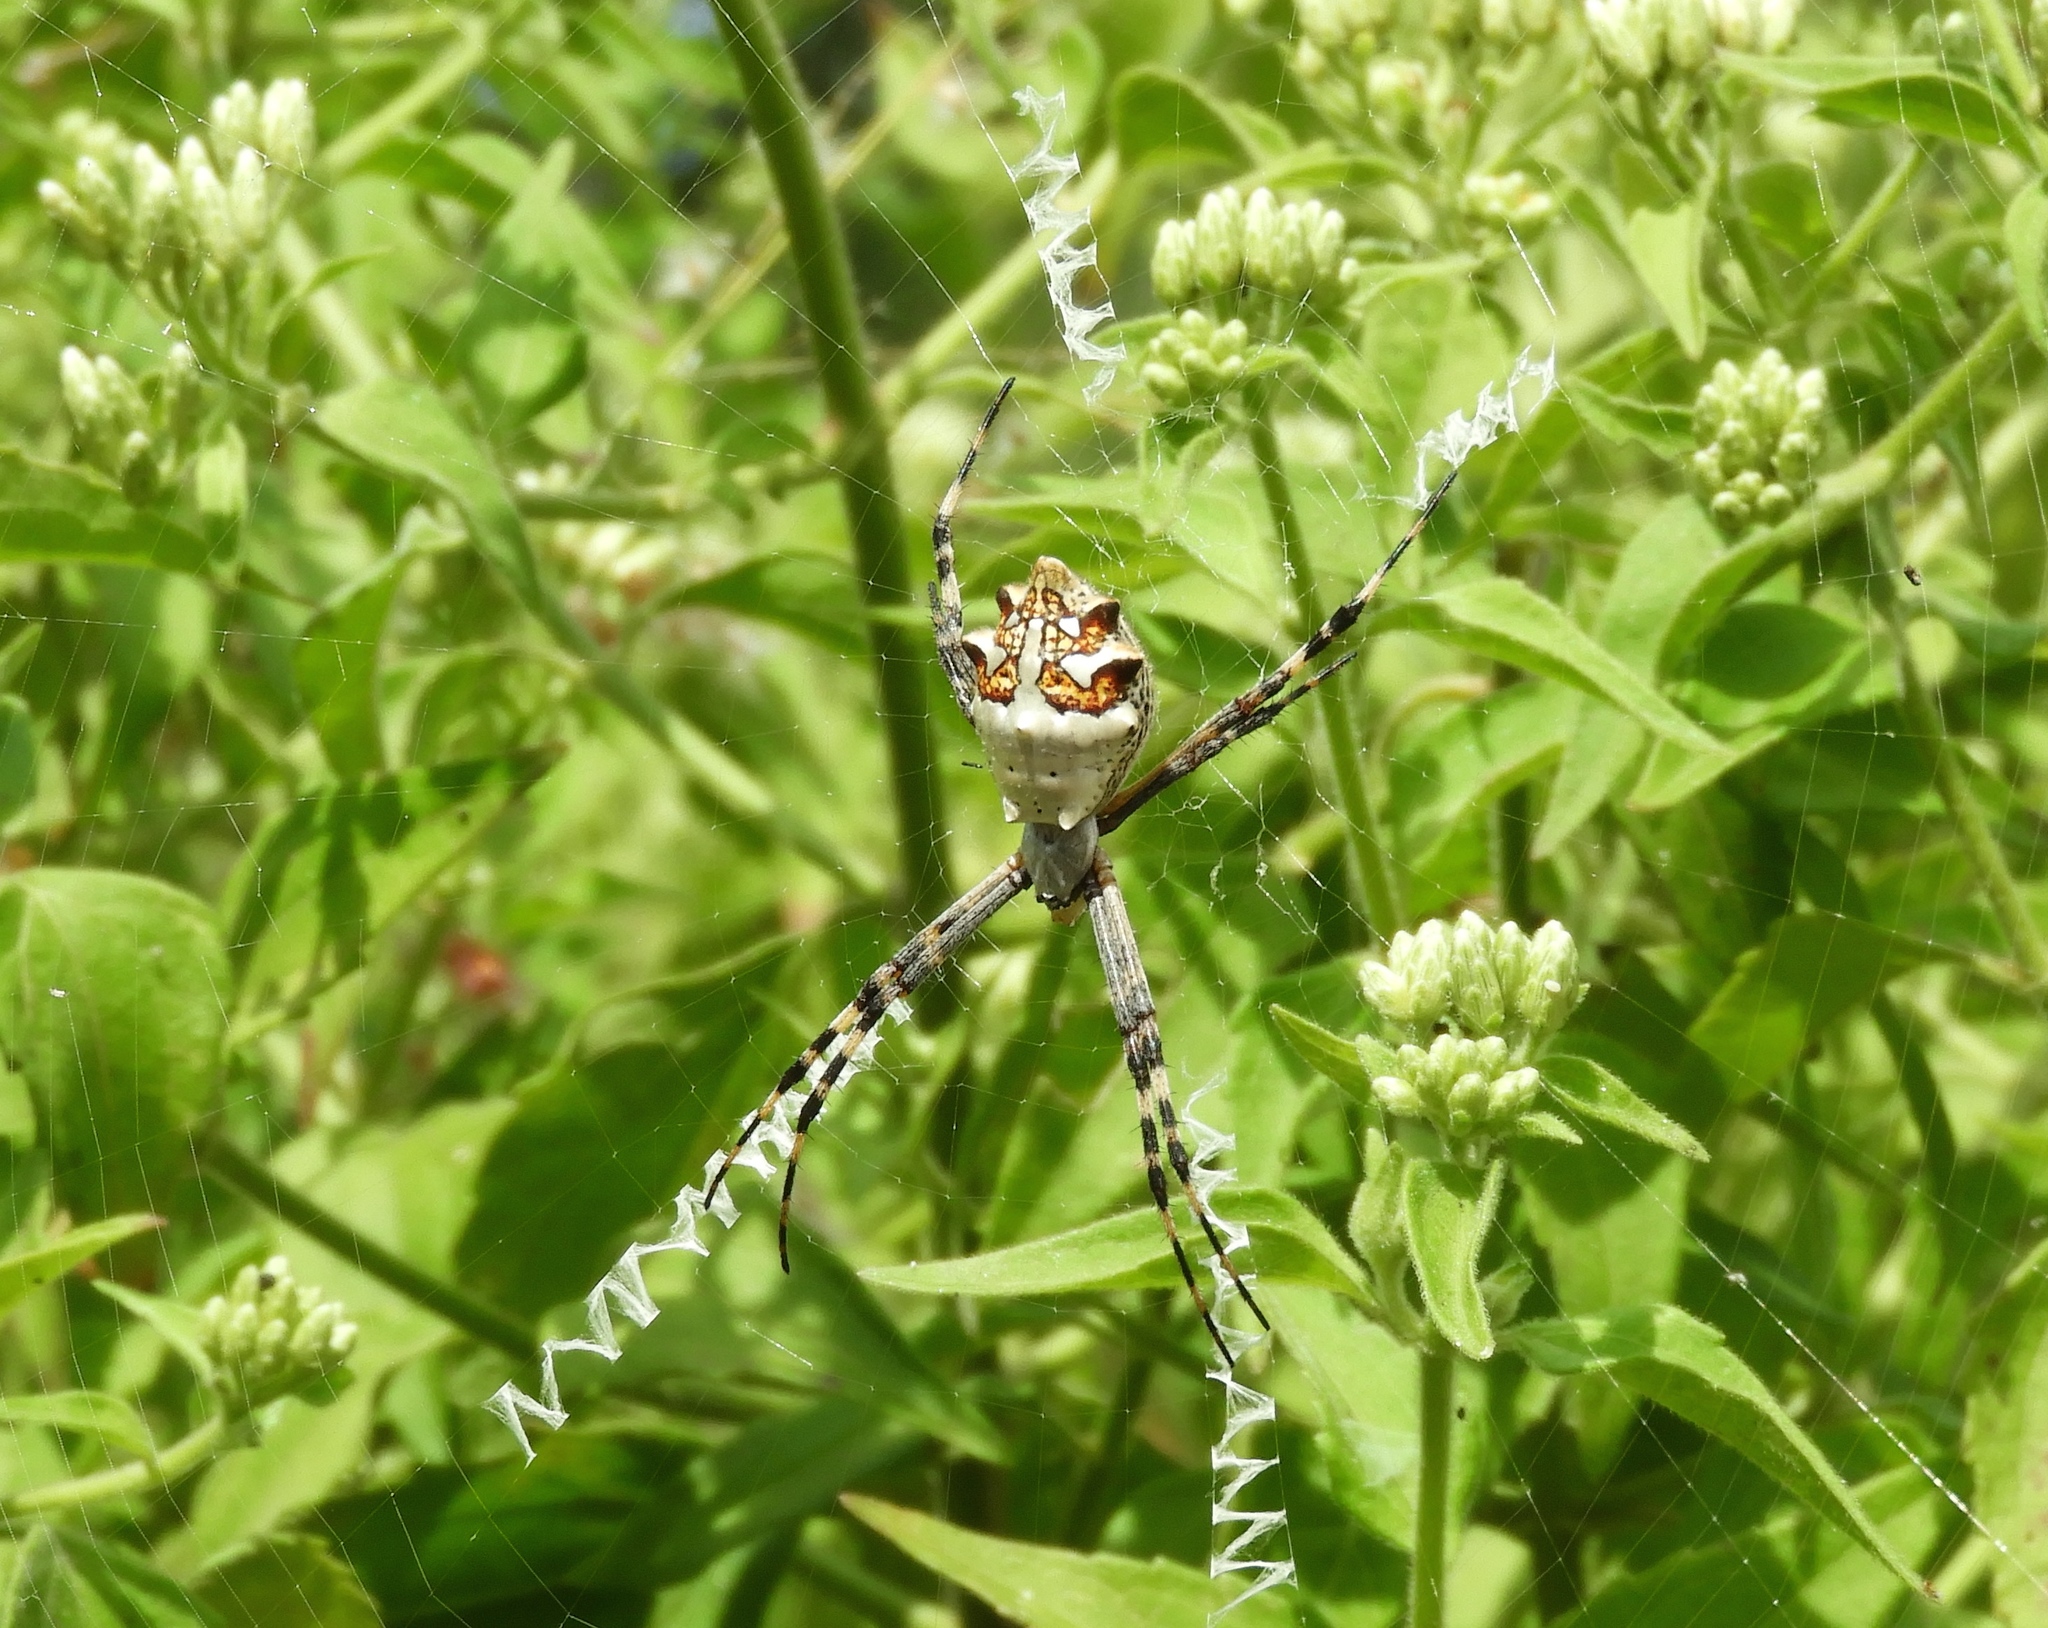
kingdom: Animalia
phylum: Arthropoda
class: Arachnida
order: Araneae
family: Araneidae
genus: Argiope
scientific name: Argiope argentata
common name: Orb weavers
